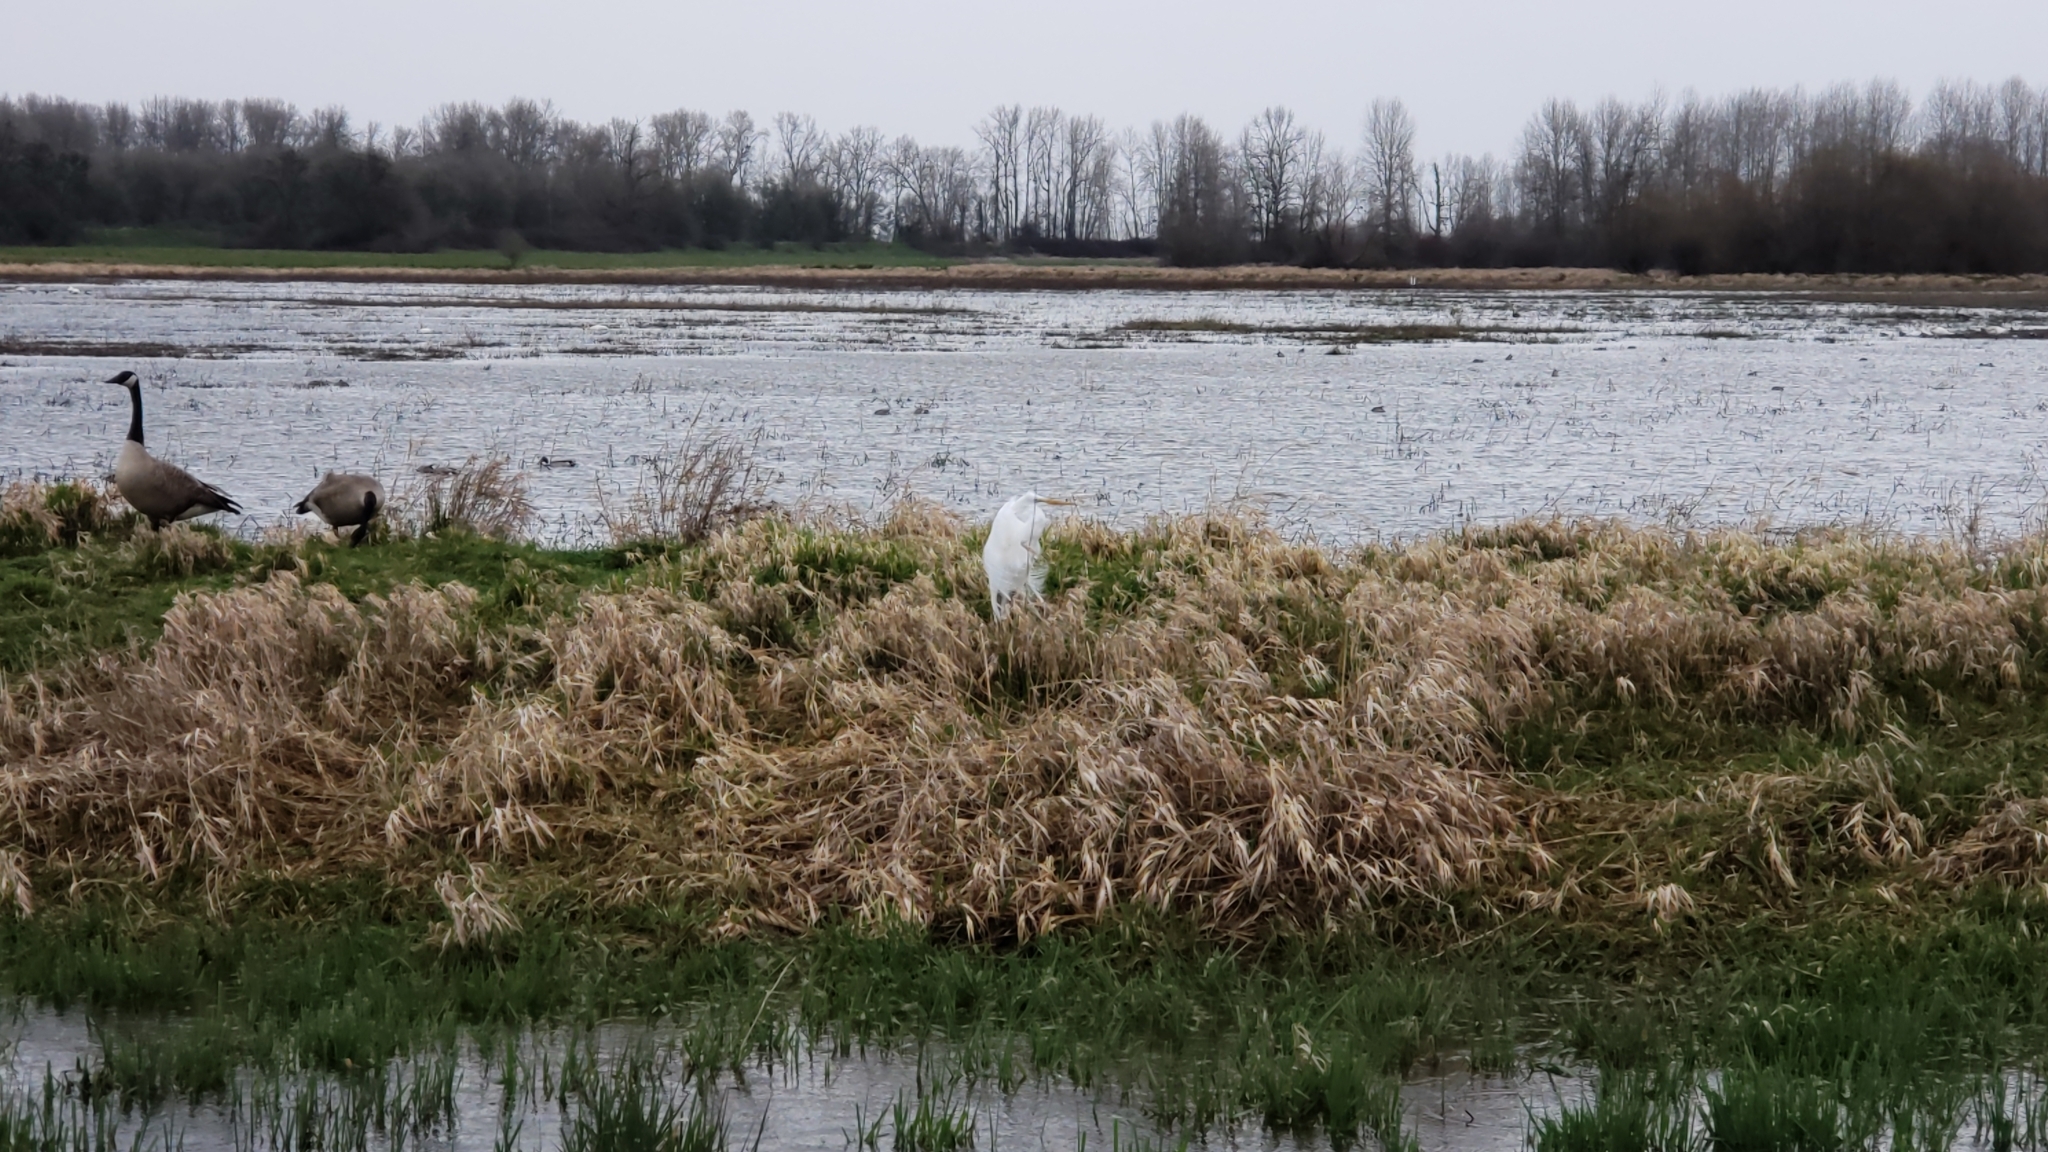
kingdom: Animalia
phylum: Chordata
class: Aves
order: Pelecaniformes
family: Ardeidae
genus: Ardea
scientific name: Ardea alba
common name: Great egret
